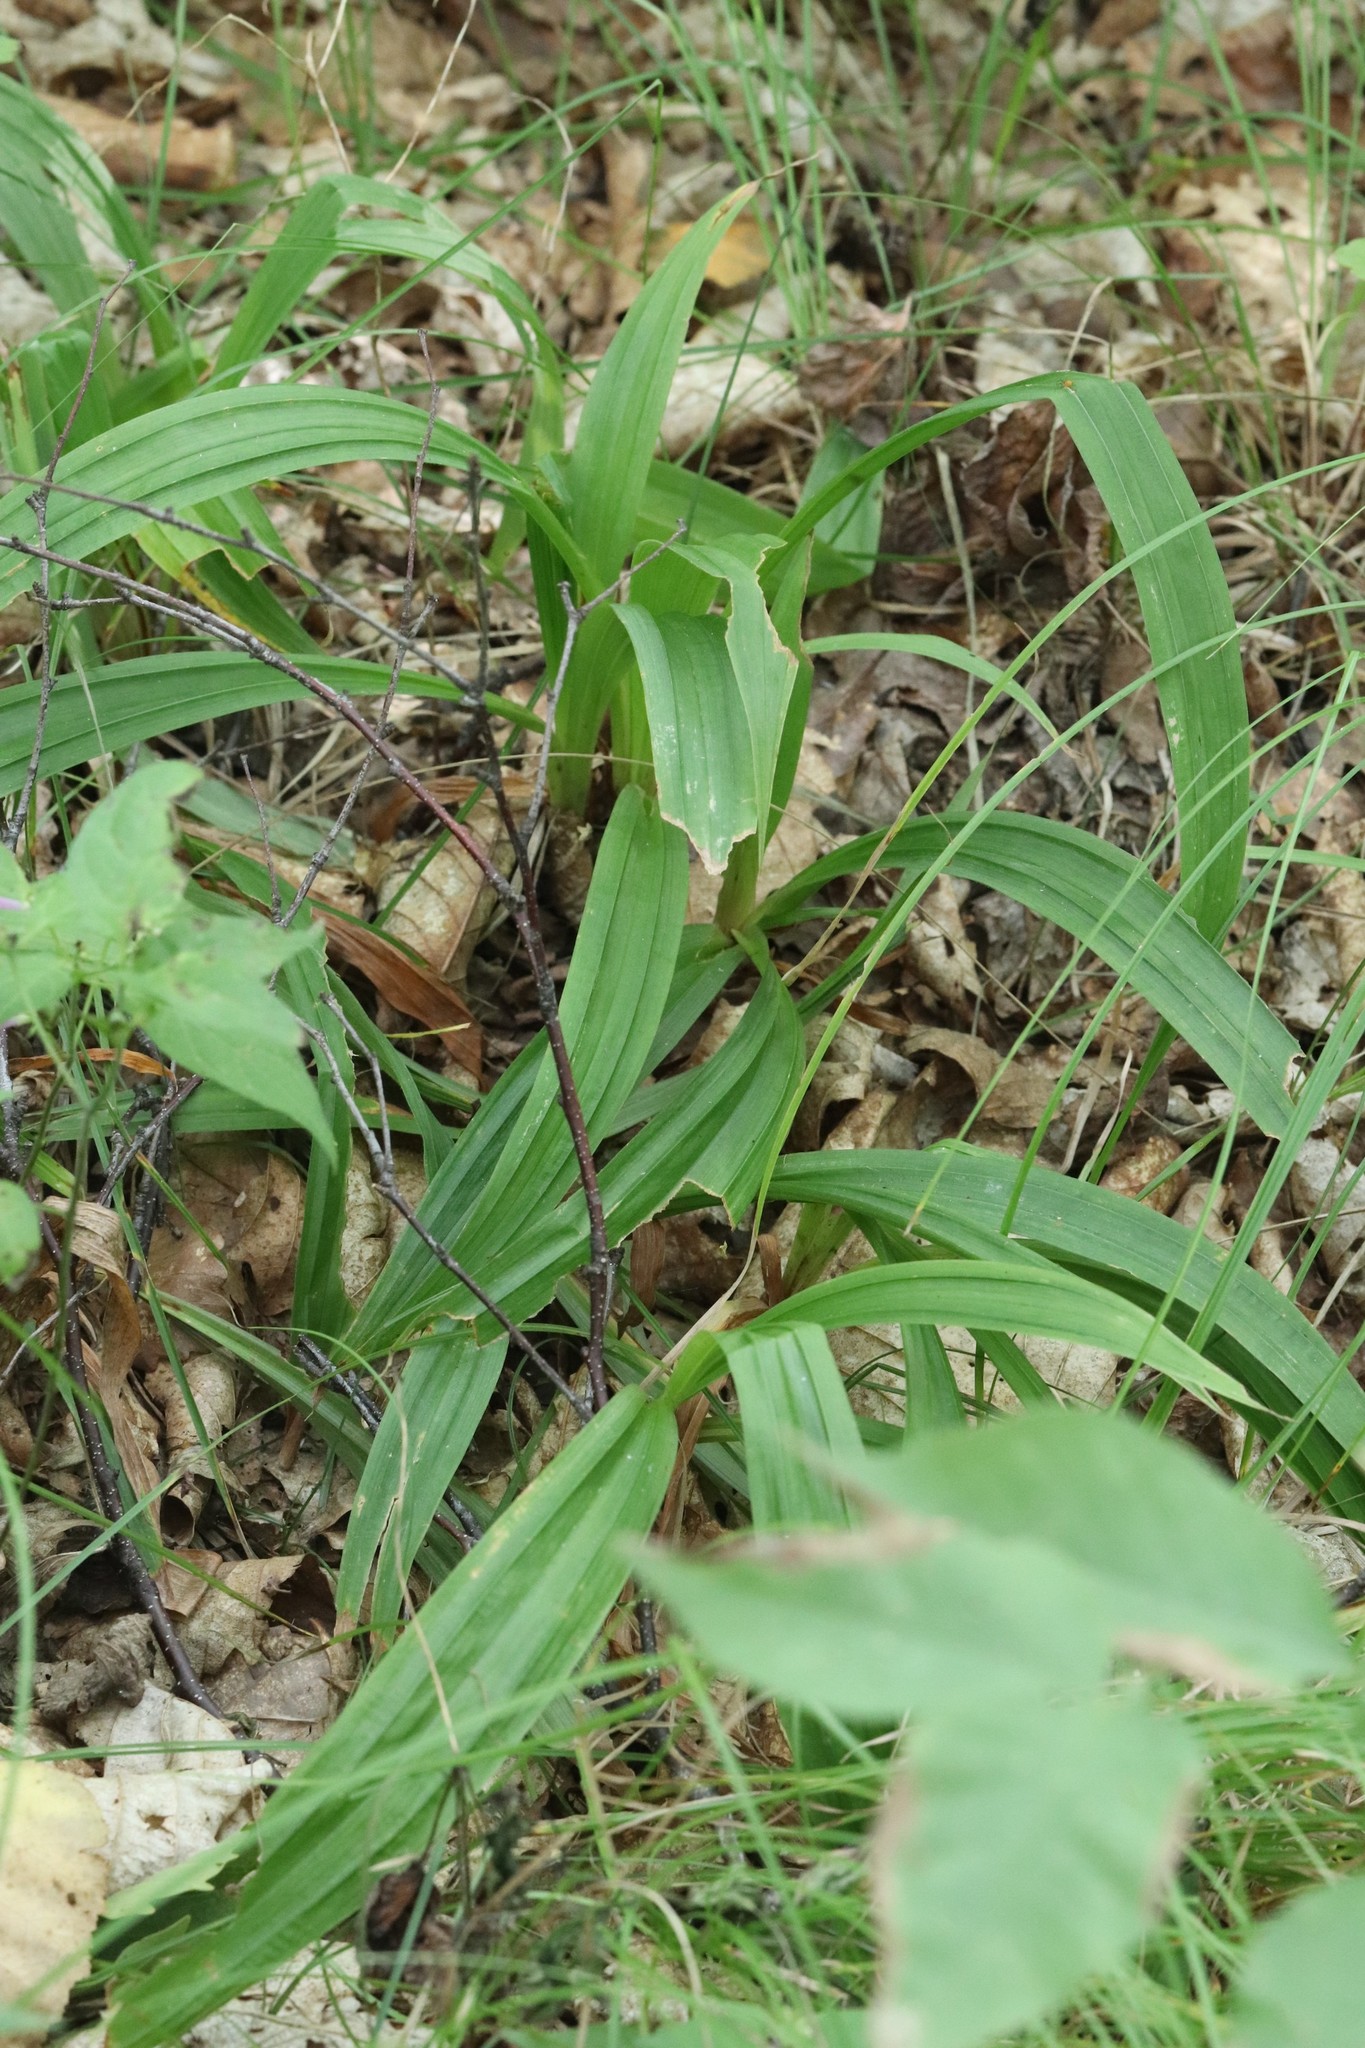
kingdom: Plantae
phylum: Tracheophyta
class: Liliopsida
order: Poales
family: Cyperaceae
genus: Carex
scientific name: Carex siderosticta
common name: Broadleaf sedge
